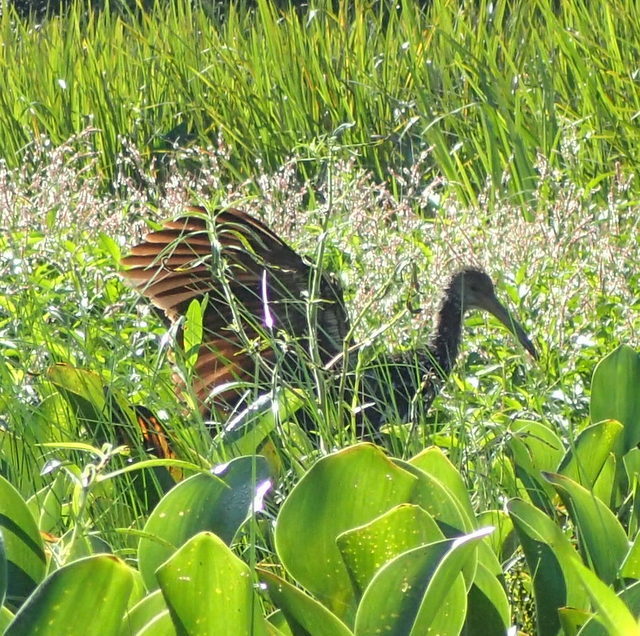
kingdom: Animalia
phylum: Chordata
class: Aves
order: Gruiformes
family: Aramidae
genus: Aramus
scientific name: Aramus guarauna
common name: Limpkin
